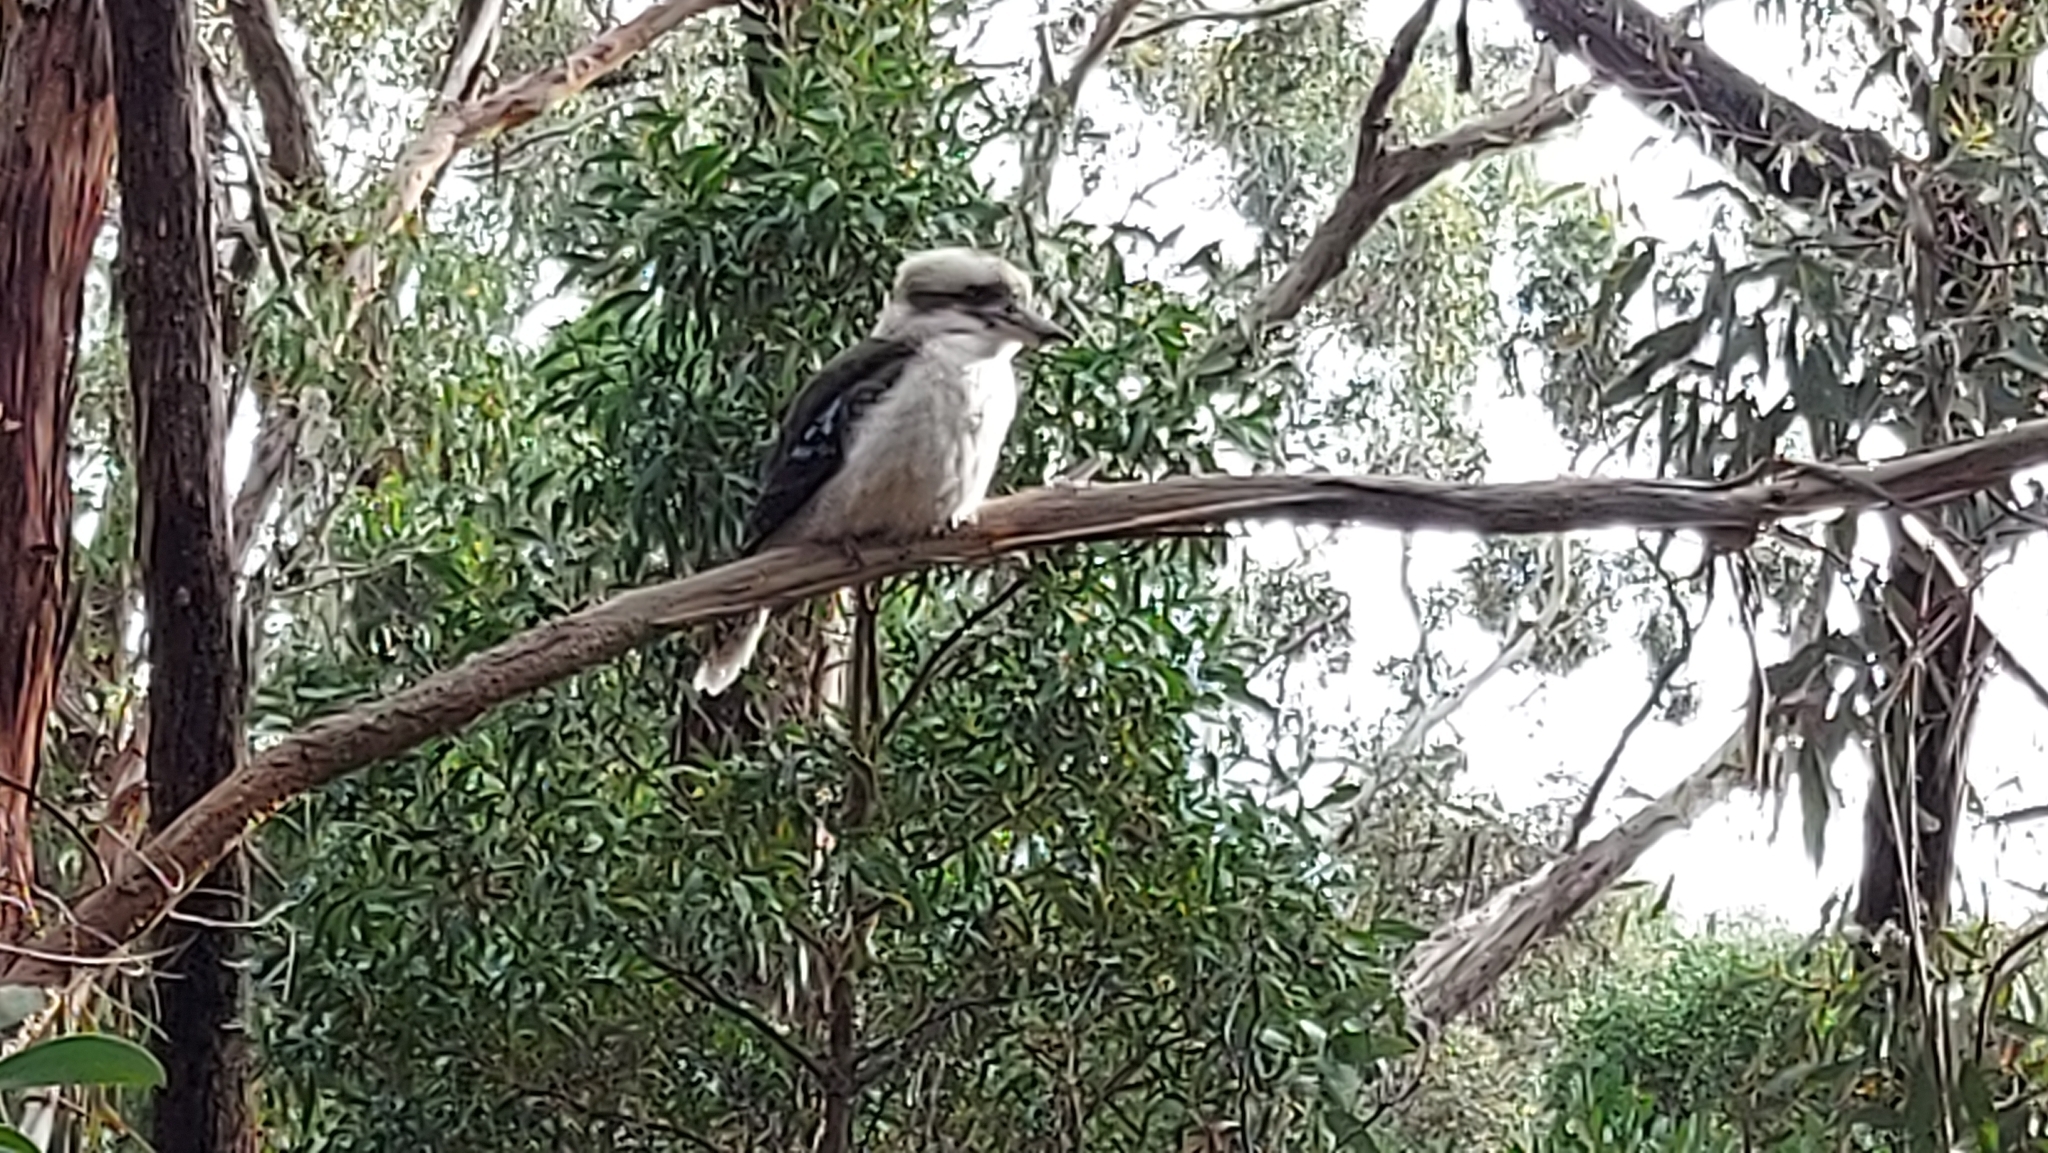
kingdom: Animalia
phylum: Chordata
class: Aves
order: Coraciiformes
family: Alcedinidae
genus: Dacelo
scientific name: Dacelo novaeguineae
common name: Laughing kookaburra
